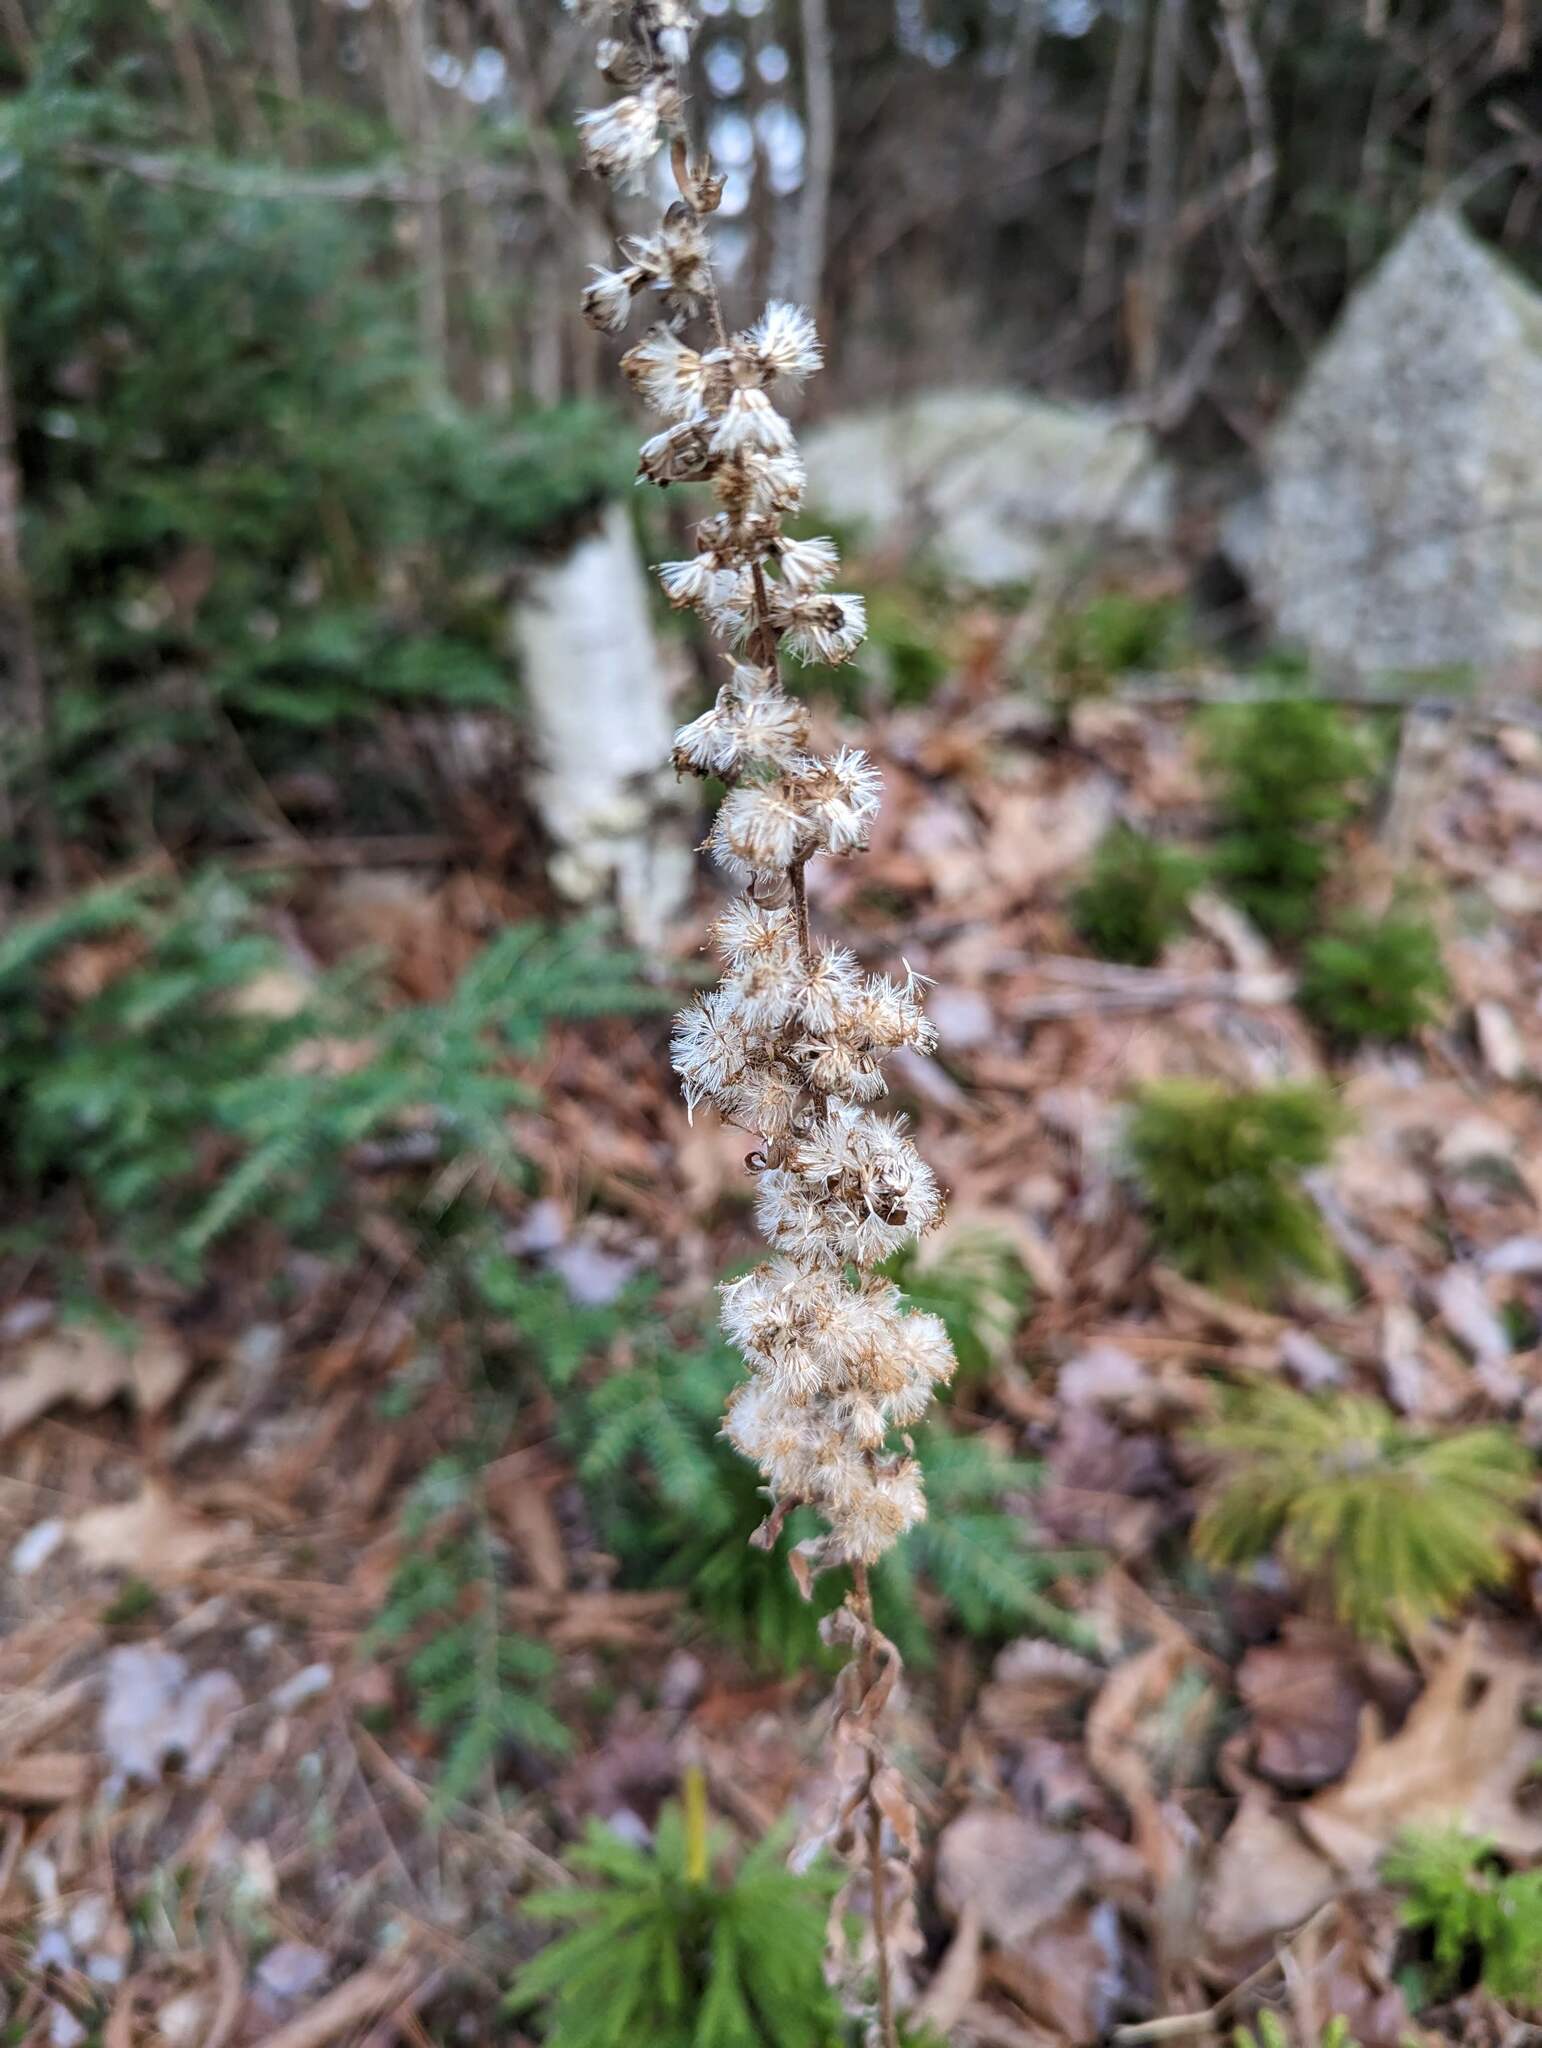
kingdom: Plantae
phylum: Tracheophyta
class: Magnoliopsida
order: Asterales
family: Asteraceae
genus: Solidago
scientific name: Solidago bicolor
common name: Silverrod
